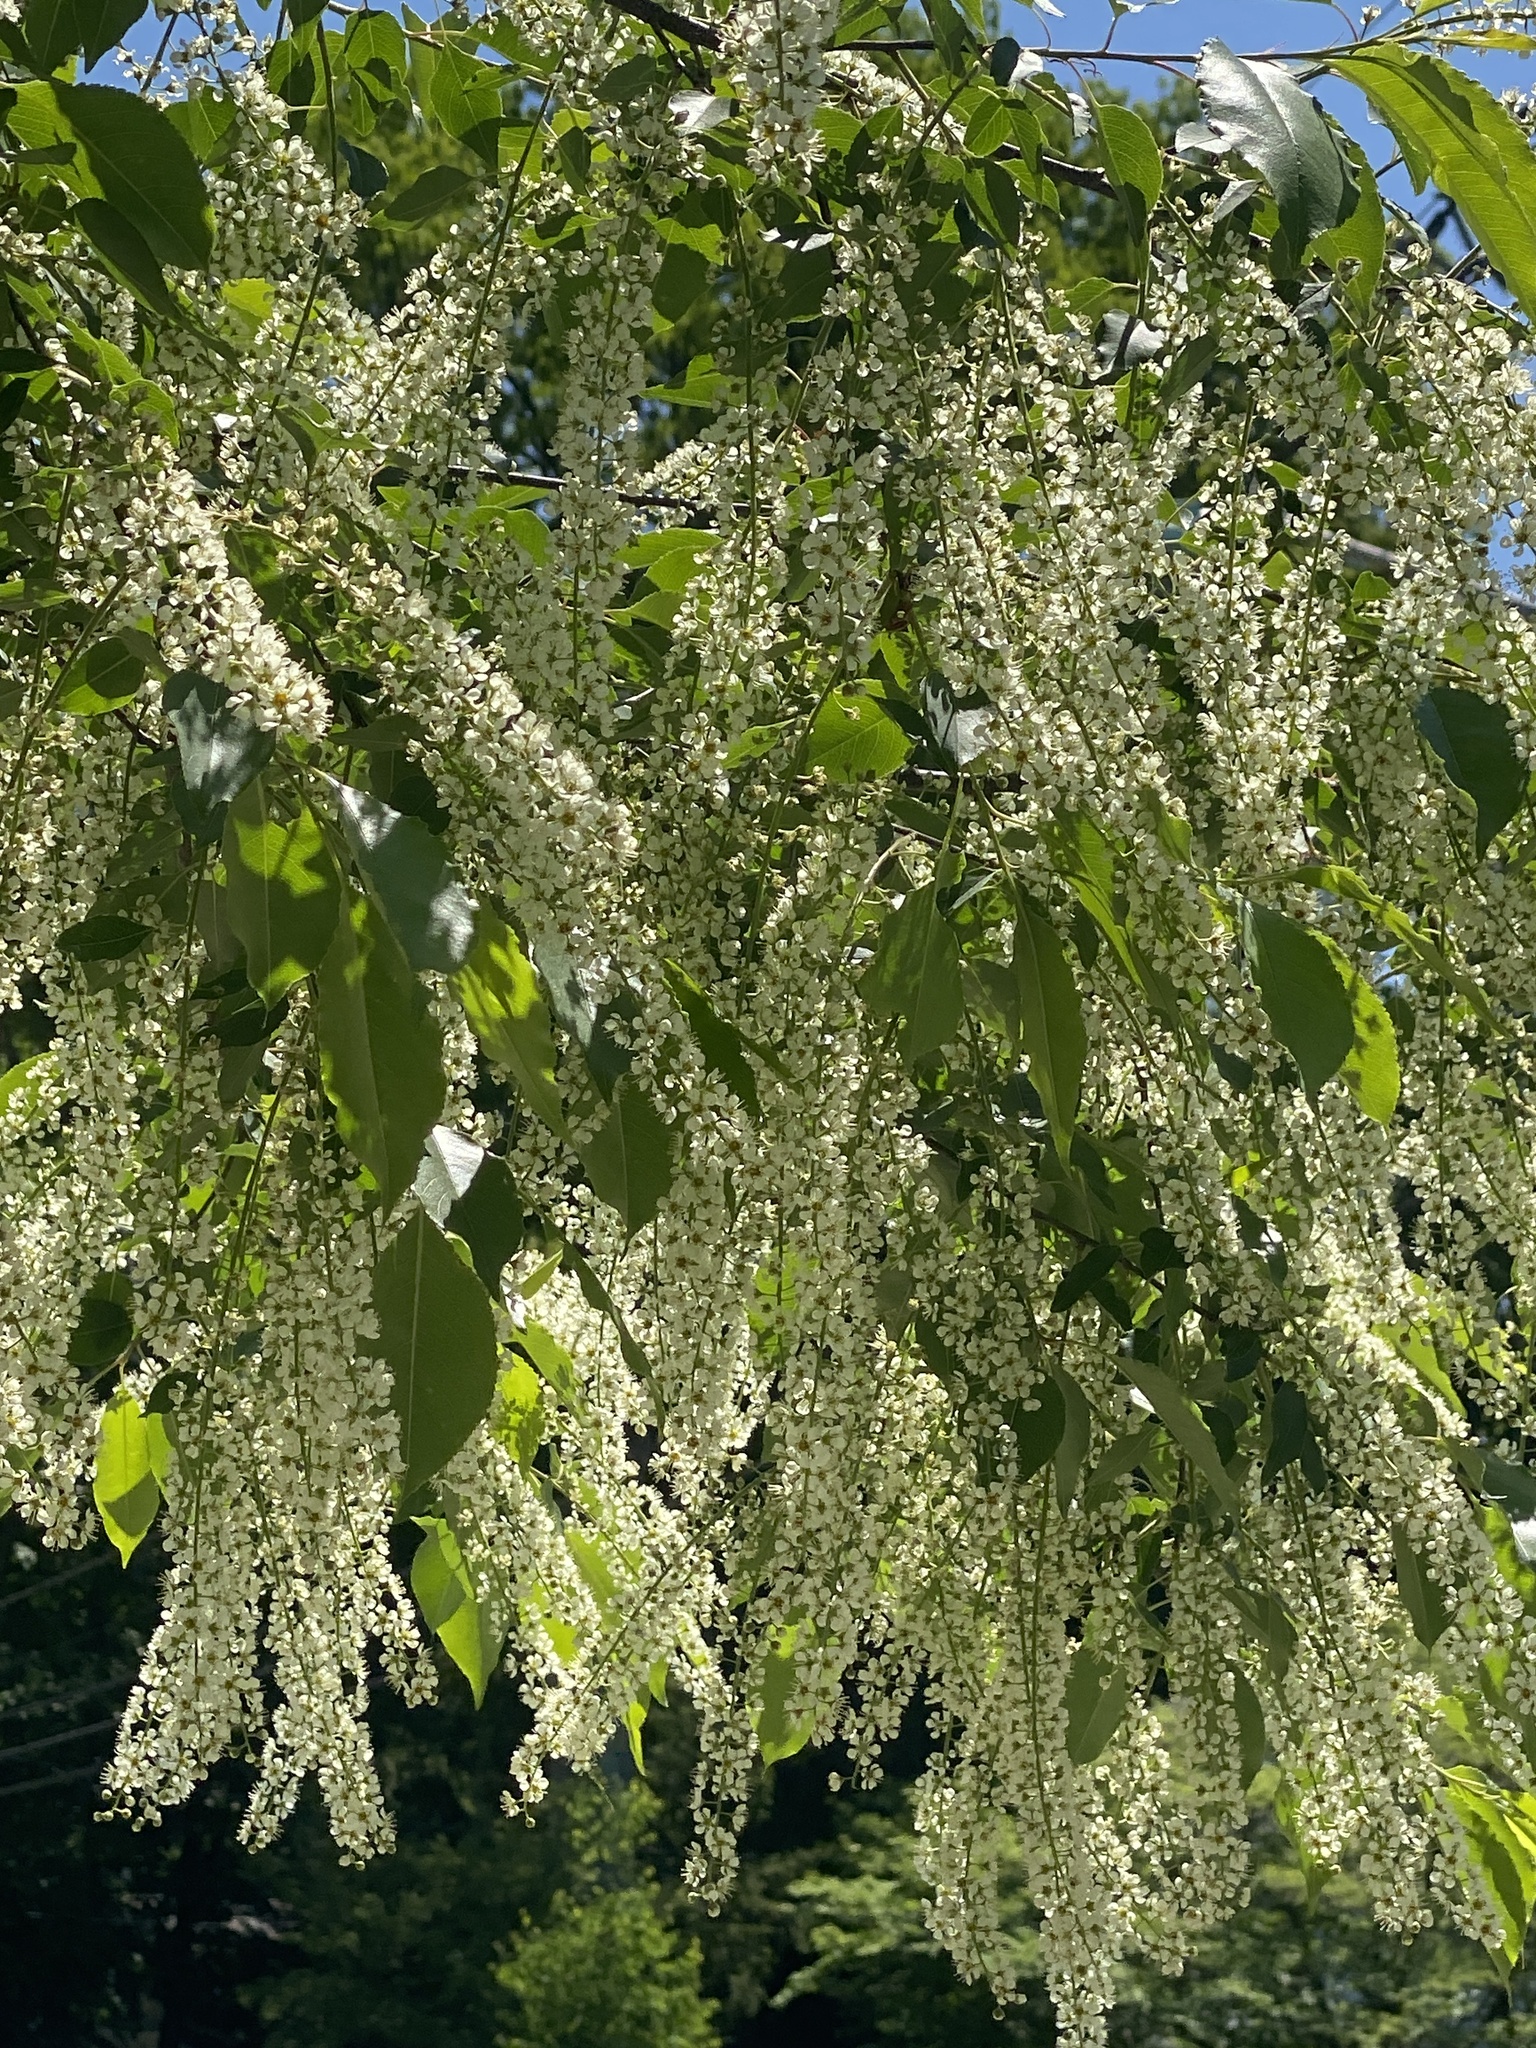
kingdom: Plantae
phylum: Tracheophyta
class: Magnoliopsida
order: Rosales
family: Rosaceae
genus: Prunus
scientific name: Prunus serotina
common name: Black cherry
